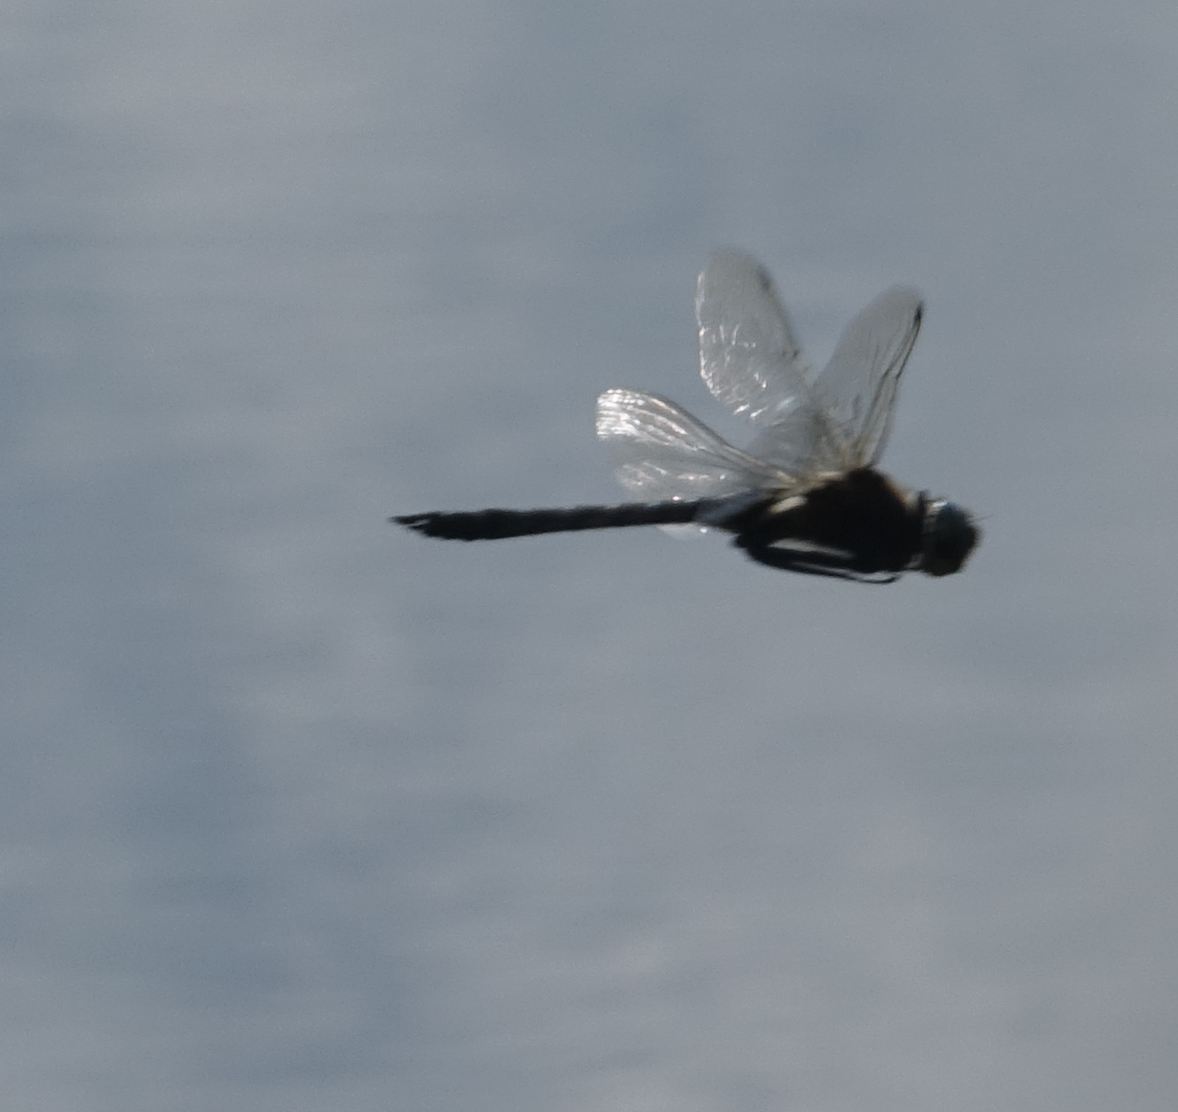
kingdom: Animalia
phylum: Arthropoda
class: Insecta
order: Odonata
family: Corduliidae
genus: Epitheca
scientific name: Epitheca bimaculata
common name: Eurasian baskettail
